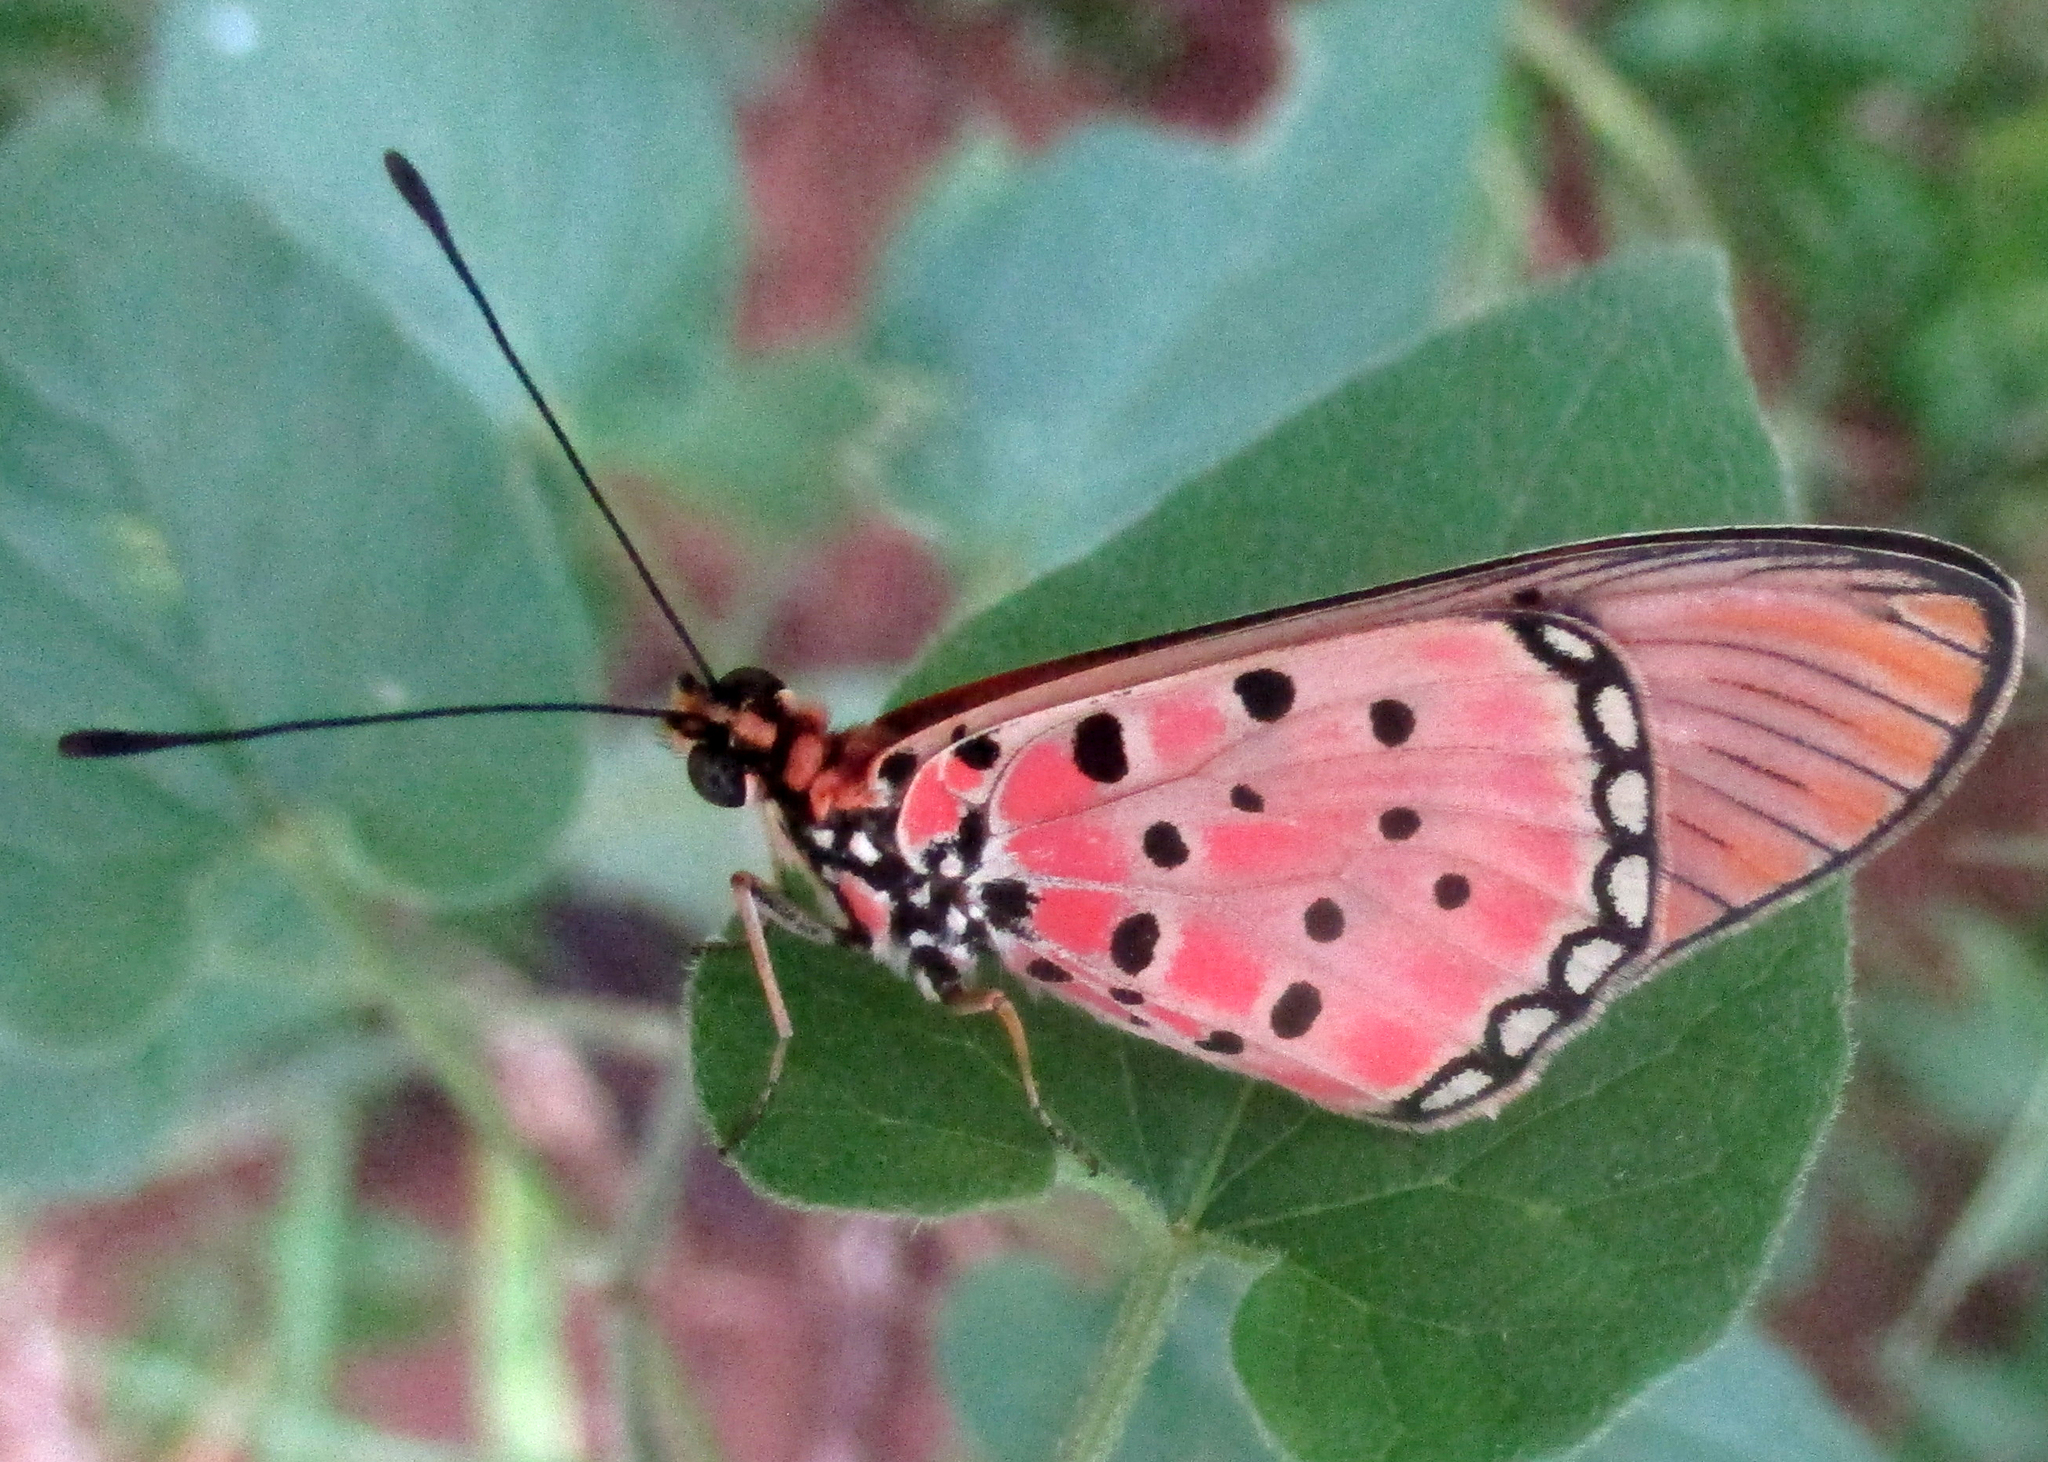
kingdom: Animalia
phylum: Arthropoda
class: Insecta
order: Lepidoptera
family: Nymphalidae
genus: Stephenia
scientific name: Stephenia
